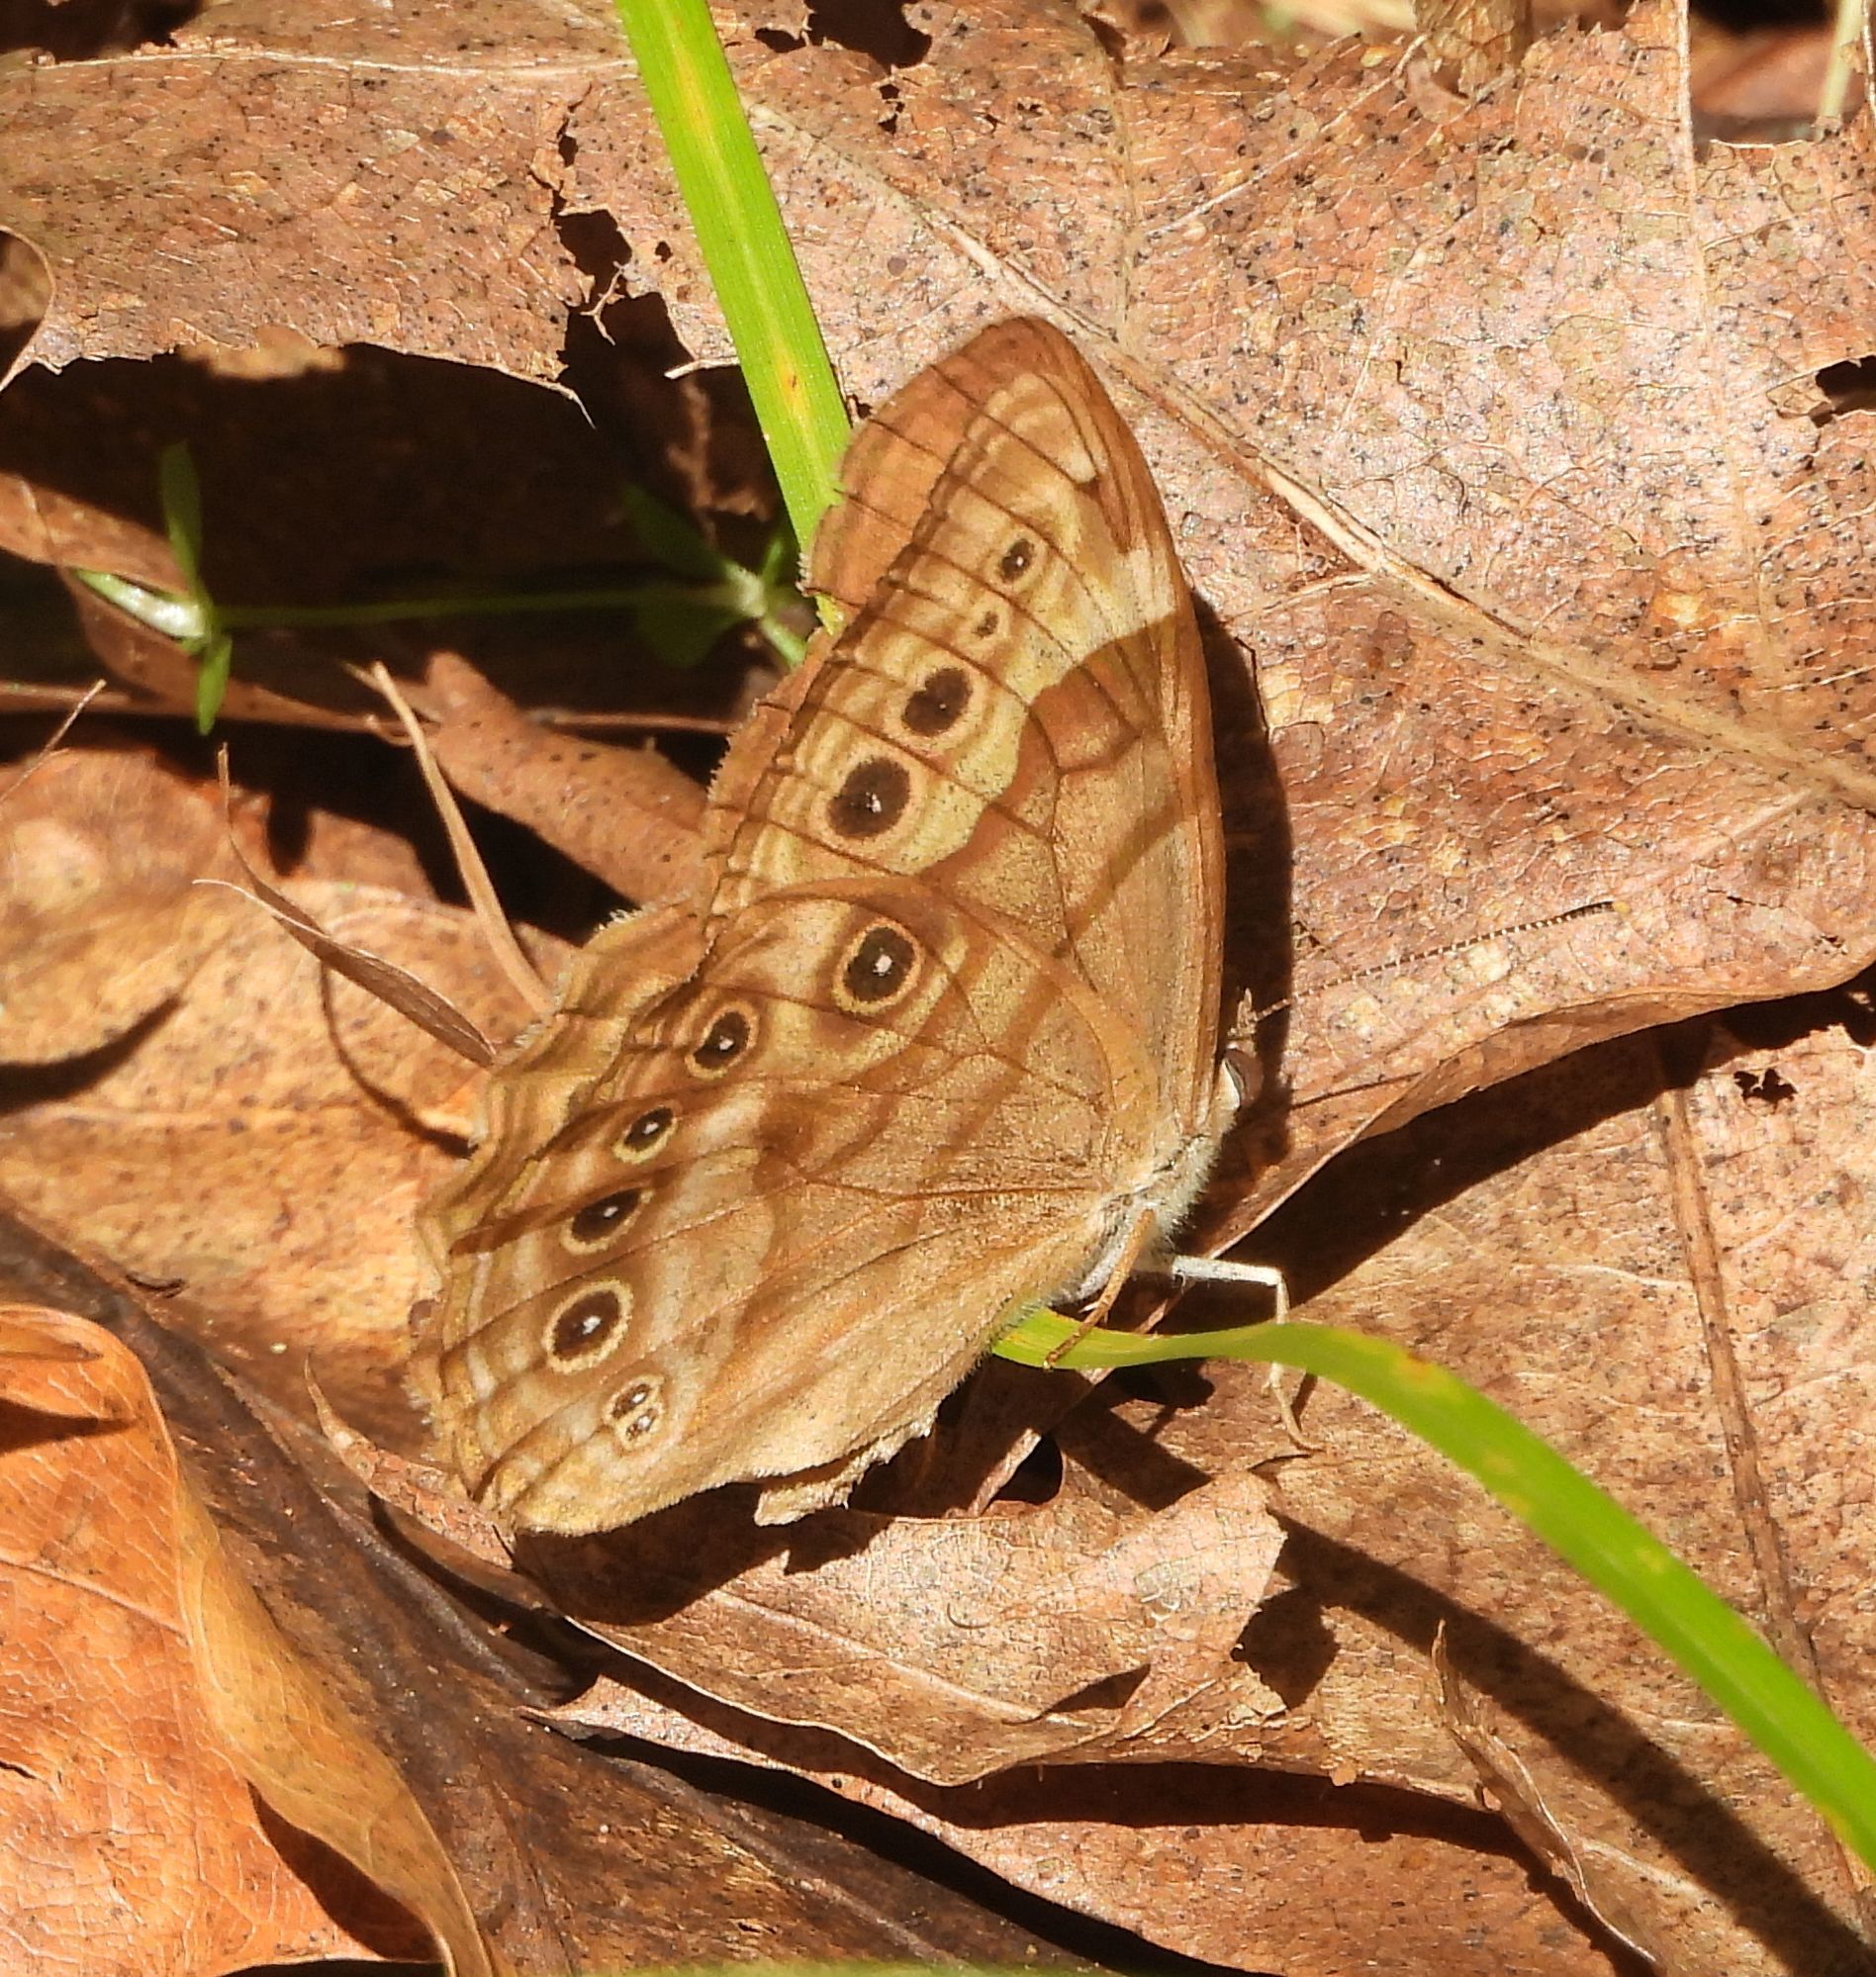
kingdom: Animalia
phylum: Arthropoda
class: Insecta
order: Lepidoptera
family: Nymphalidae
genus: Lethe
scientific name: Lethe anthedon
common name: Northern pearly-eye
